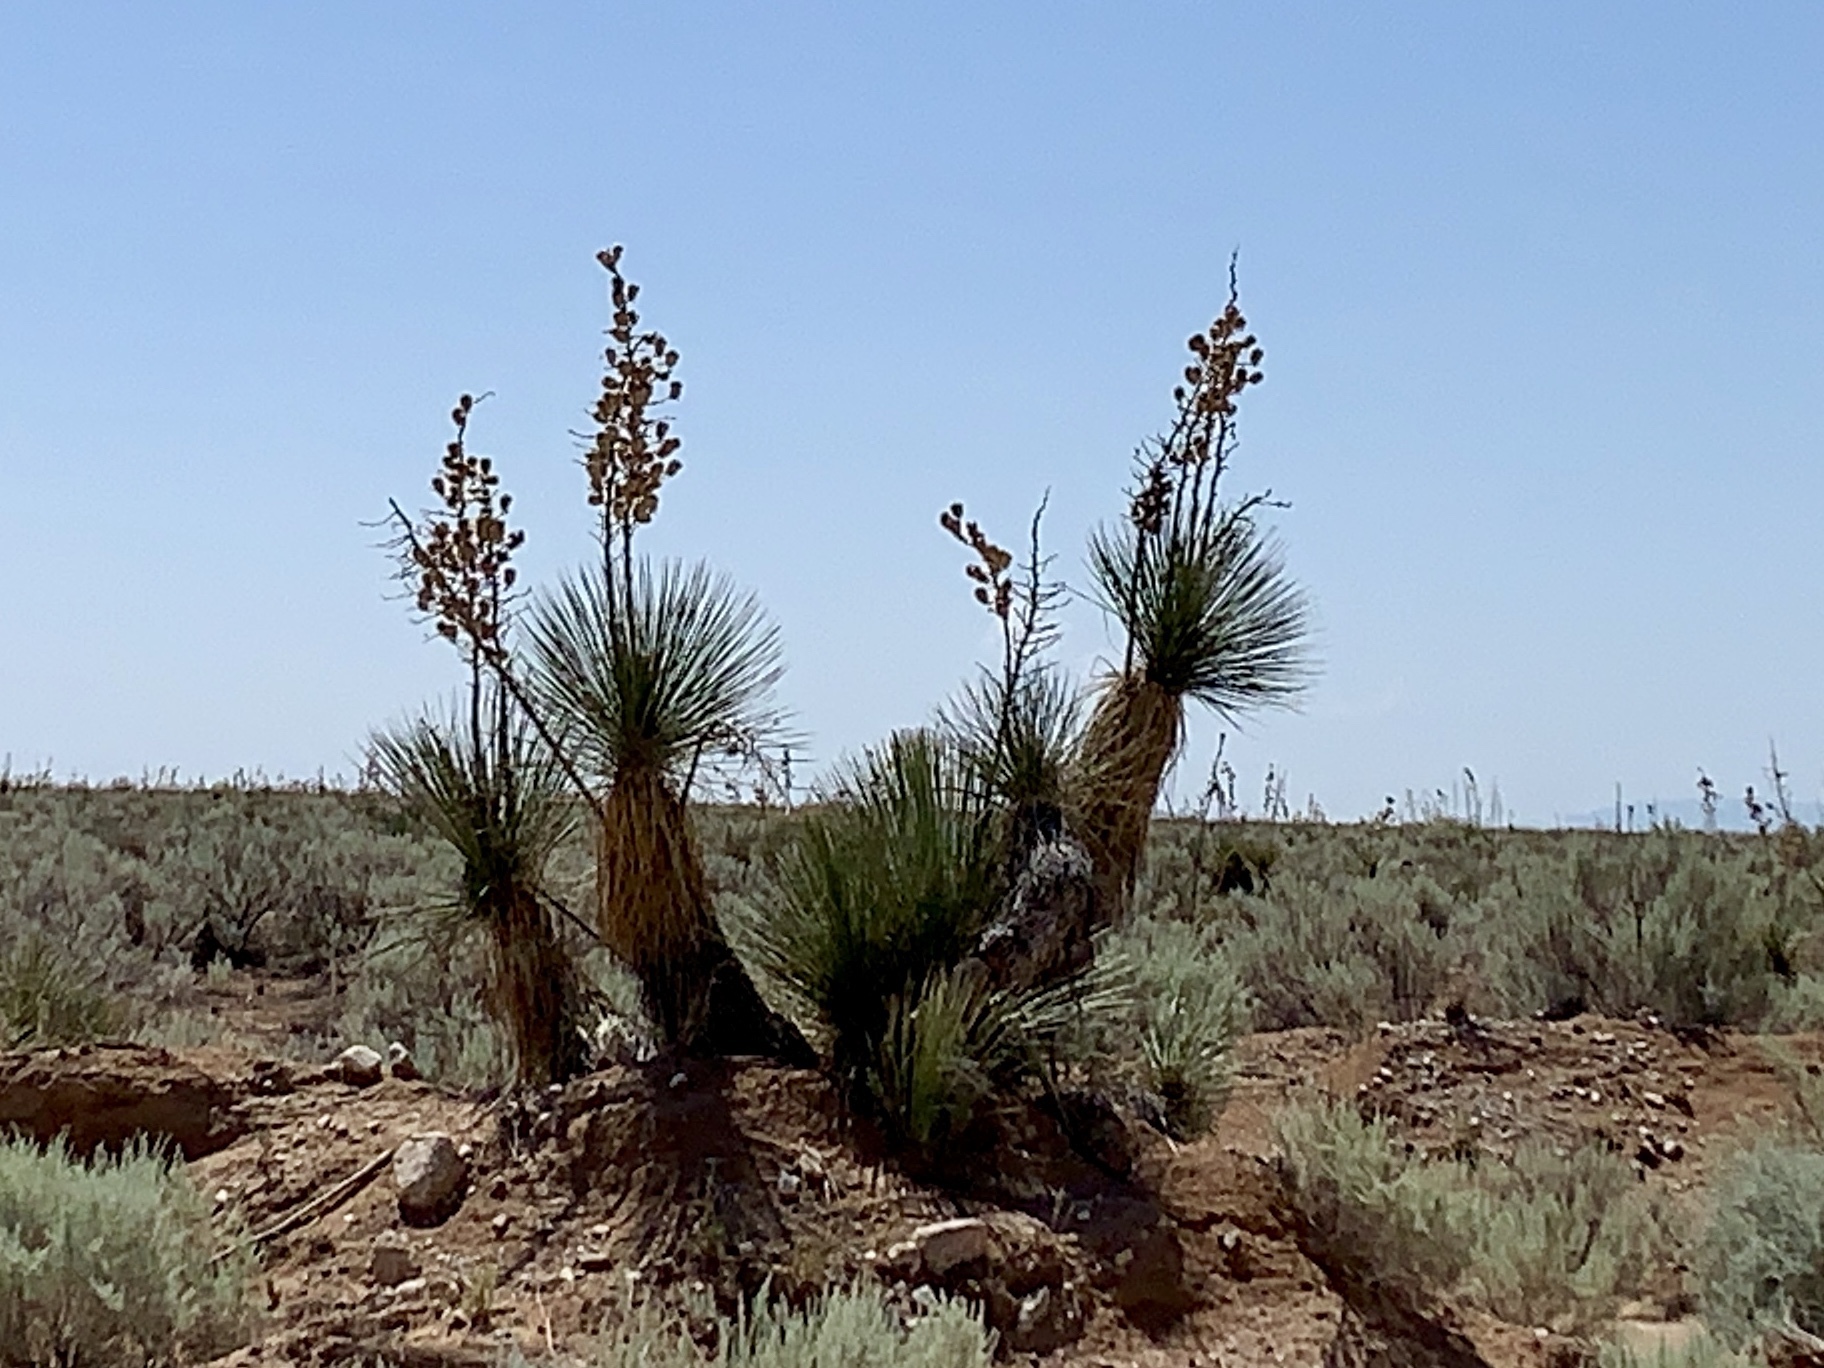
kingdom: Plantae
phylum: Tracheophyta
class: Liliopsida
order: Asparagales
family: Asparagaceae
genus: Yucca
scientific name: Yucca elata
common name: Palmella
